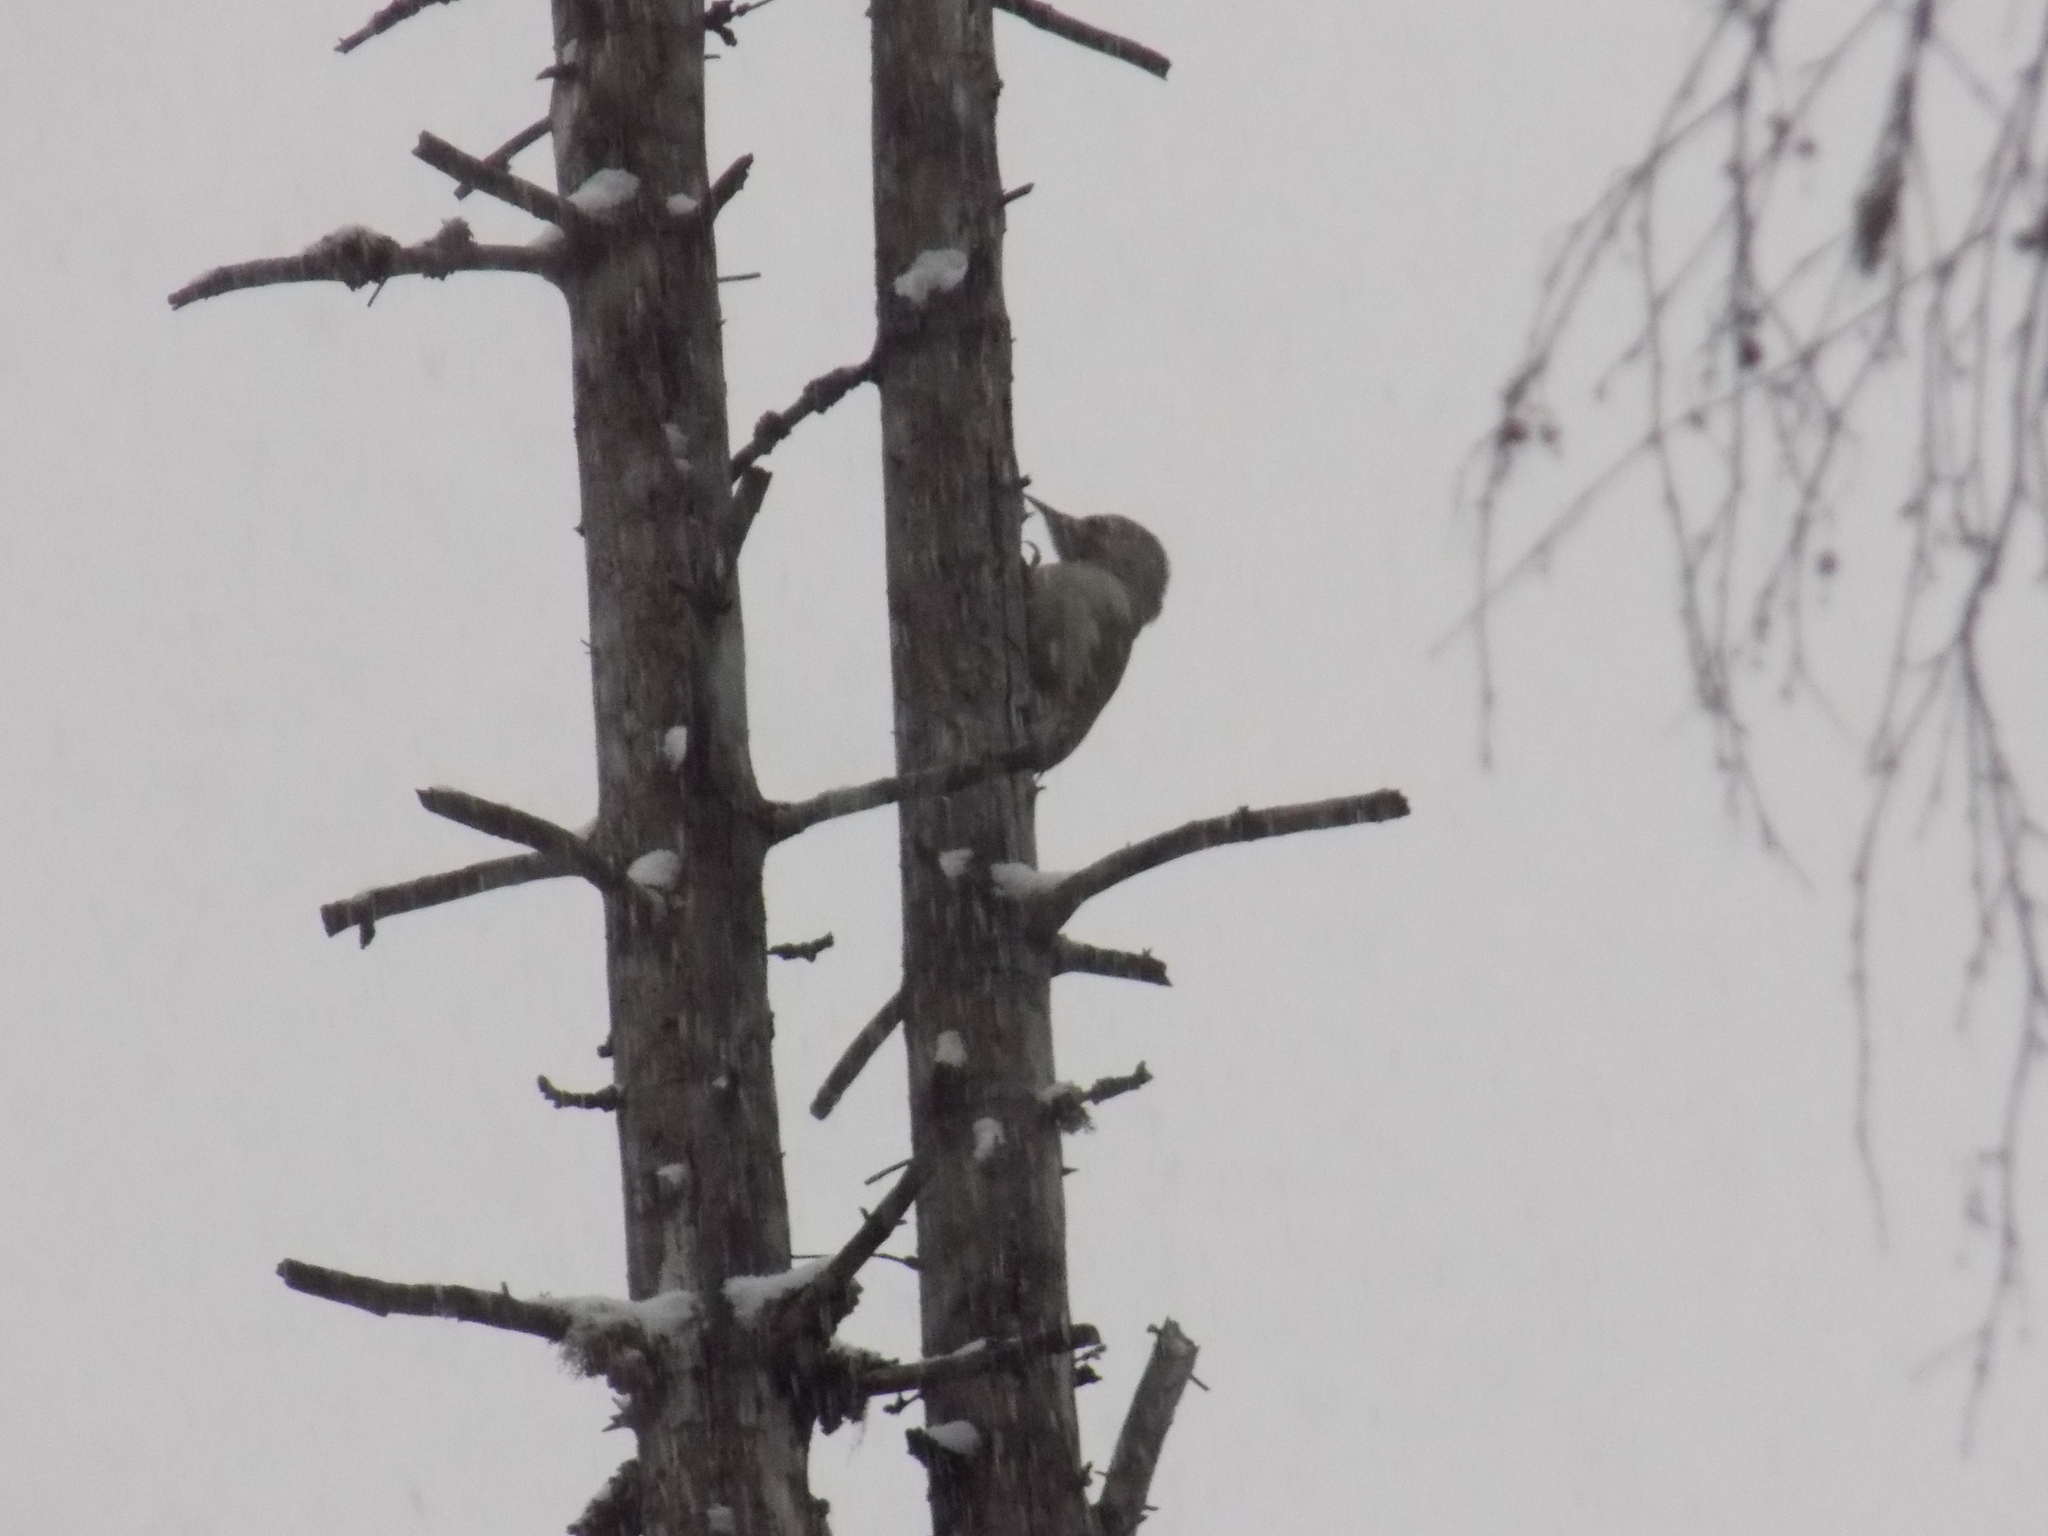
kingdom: Animalia
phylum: Chordata
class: Aves
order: Piciformes
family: Picidae
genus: Picus
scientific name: Picus canus
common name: Grey-headed woodpecker
